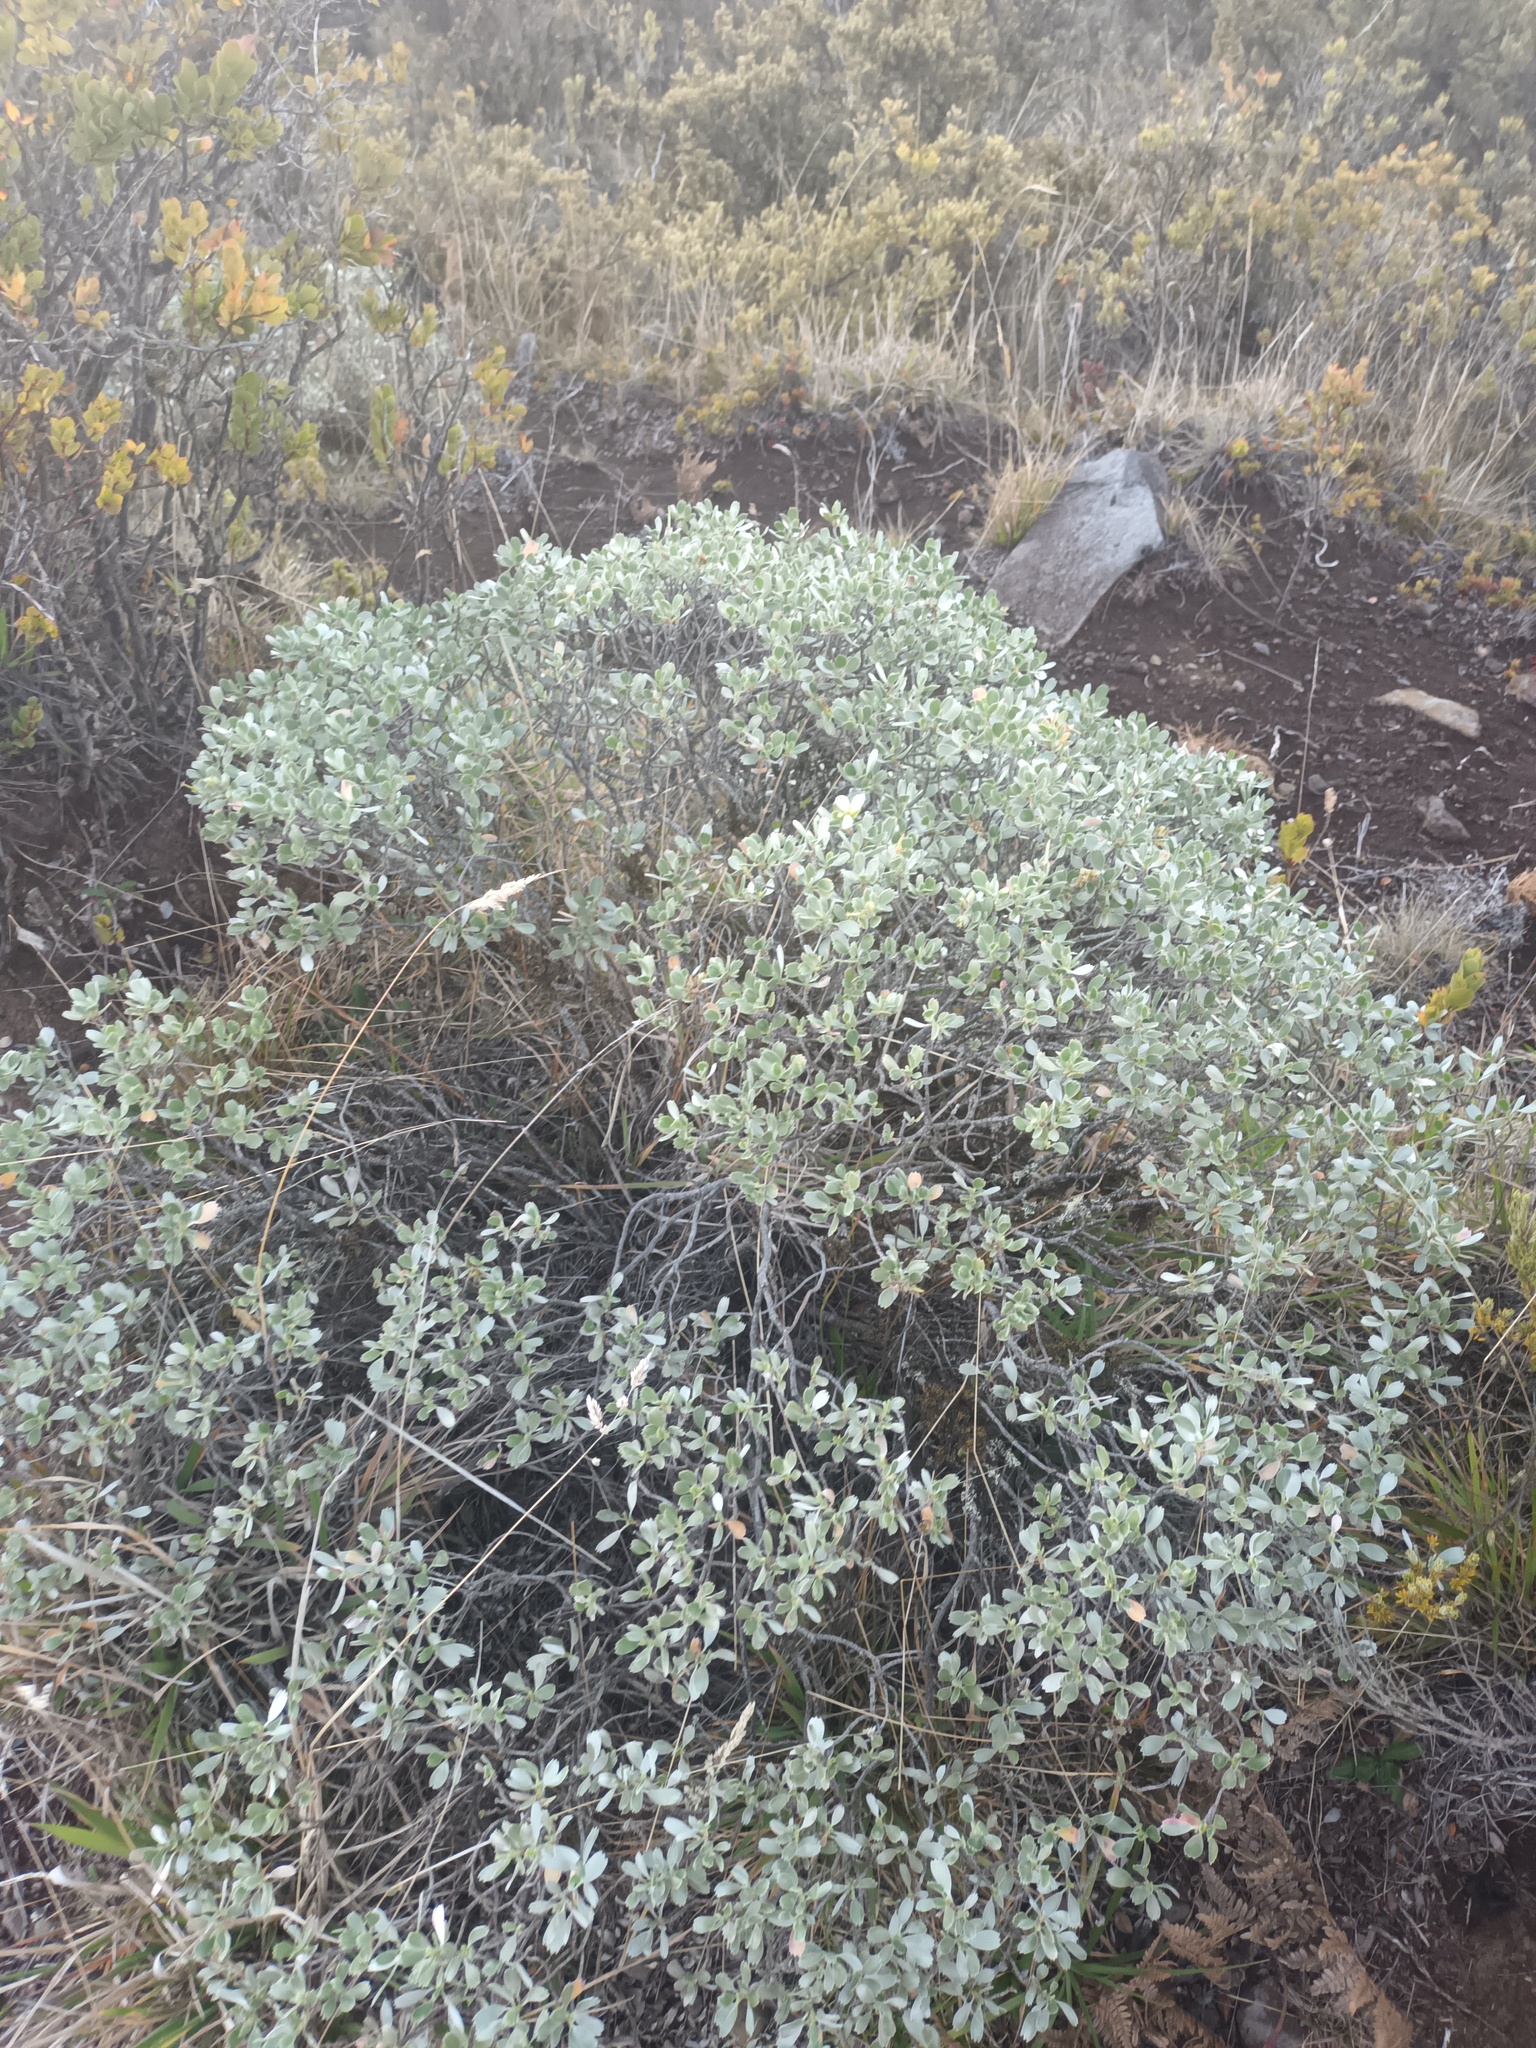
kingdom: Plantae
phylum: Tracheophyta
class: Magnoliopsida
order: Geraniales
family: Geraniaceae
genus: Geranium
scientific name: Geranium cuneatum
